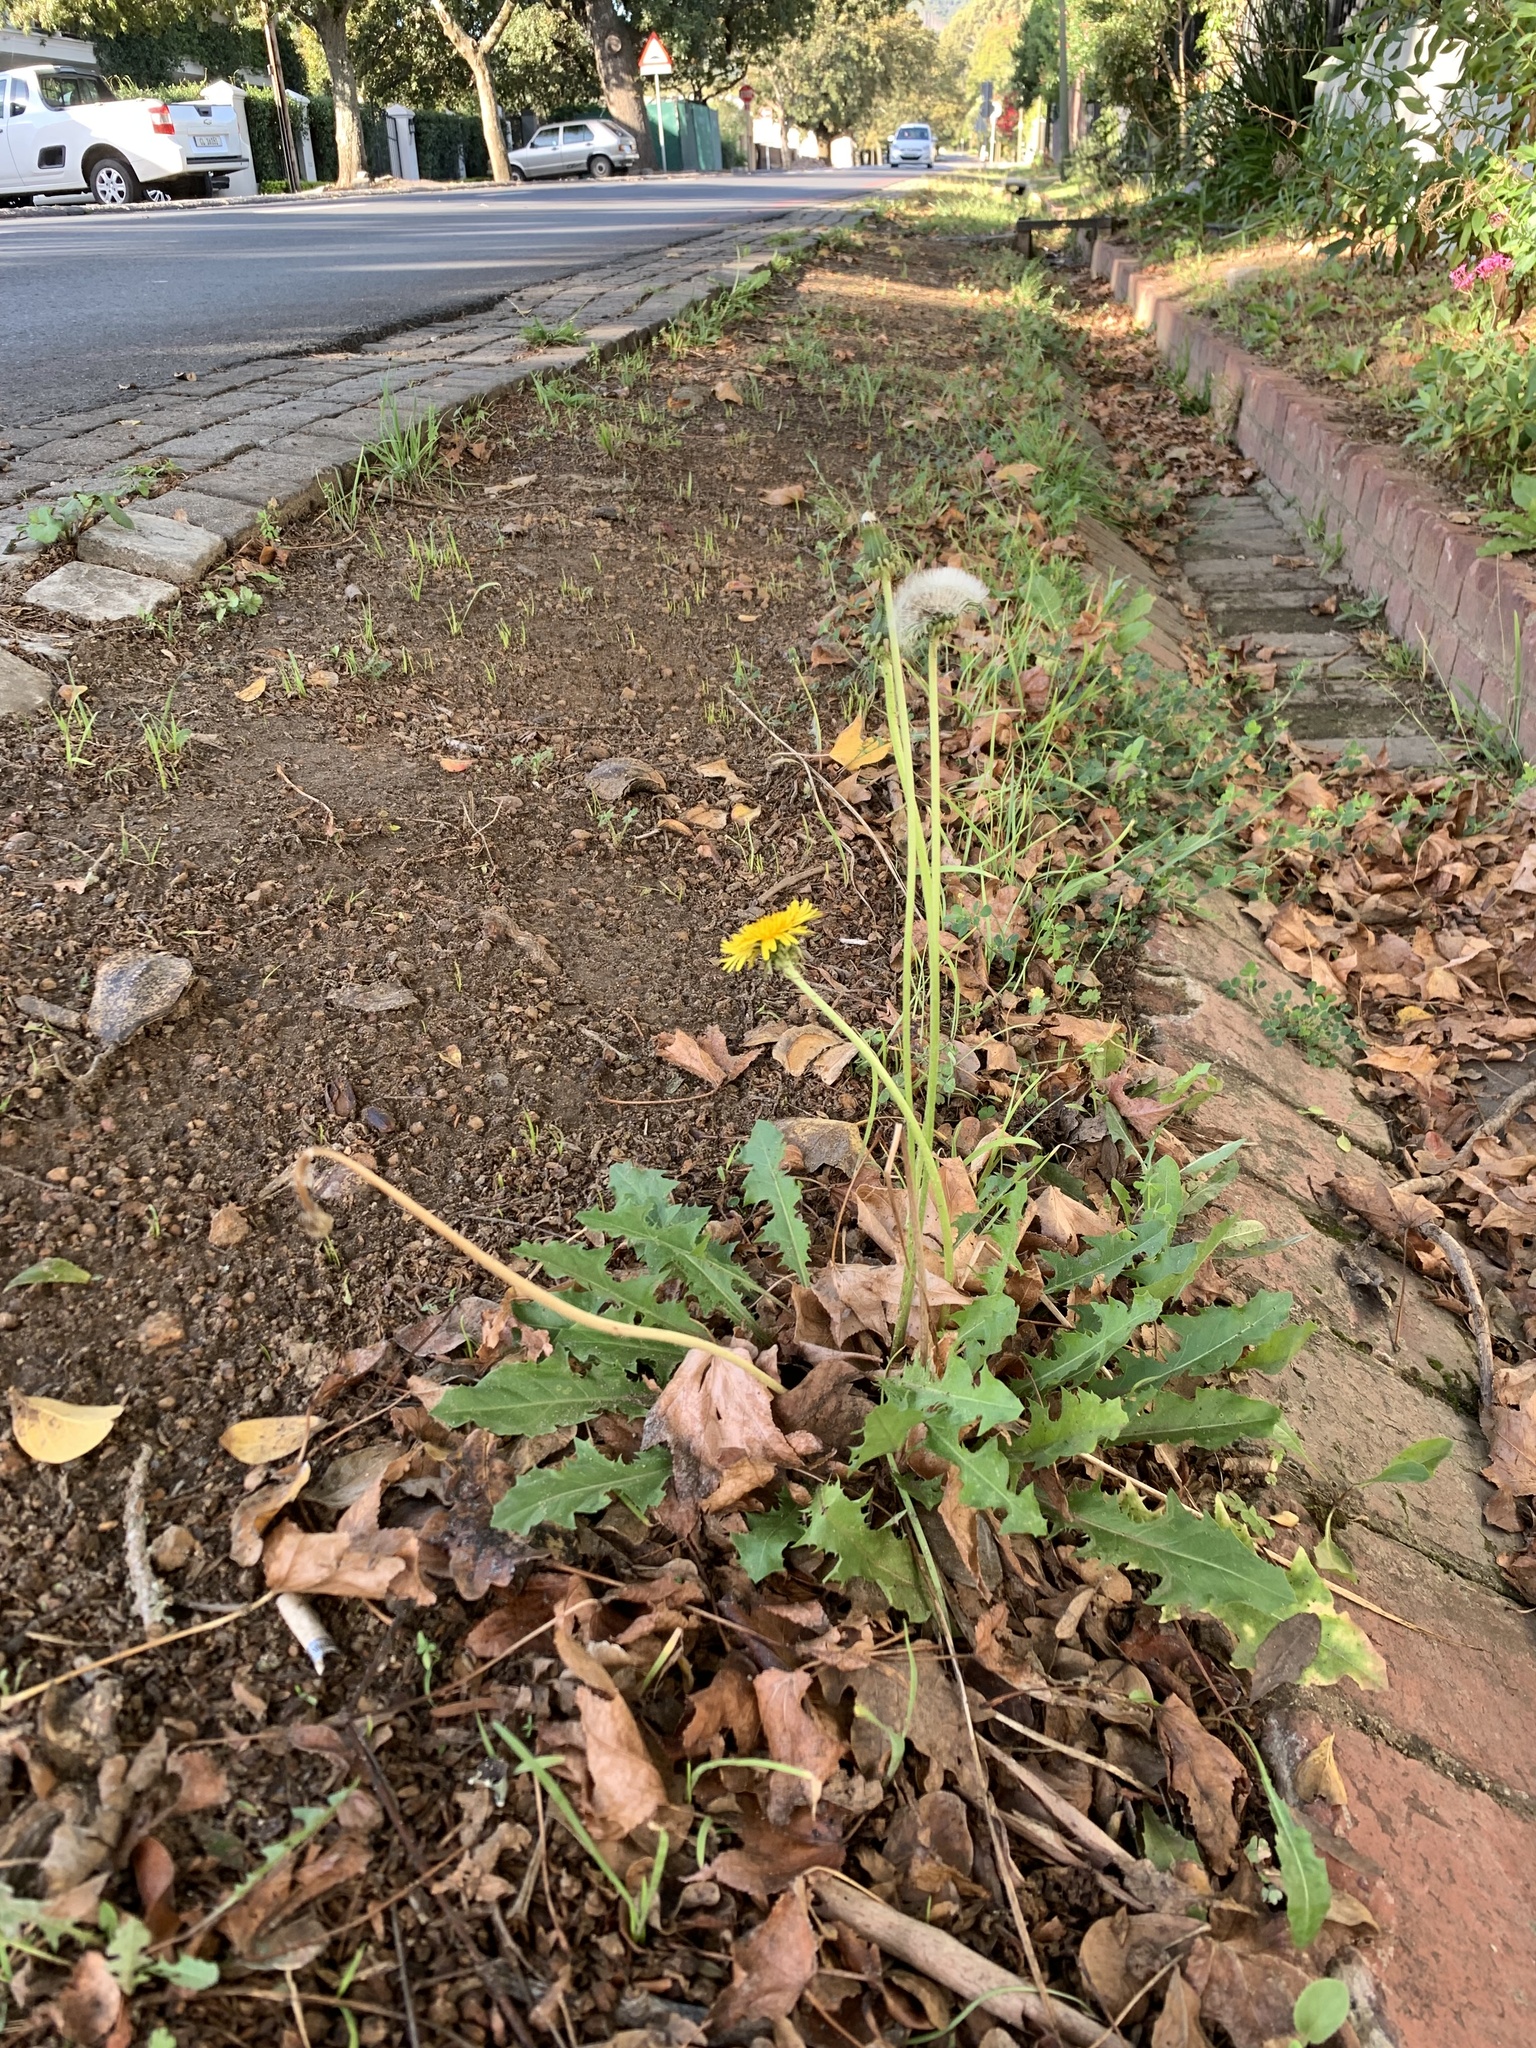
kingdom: Plantae
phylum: Tracheophyta
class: Magnoliopsida
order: Asterales
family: Asteraceae
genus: Taraxacum
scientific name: Taraxacum officinale
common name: Common dandelion
